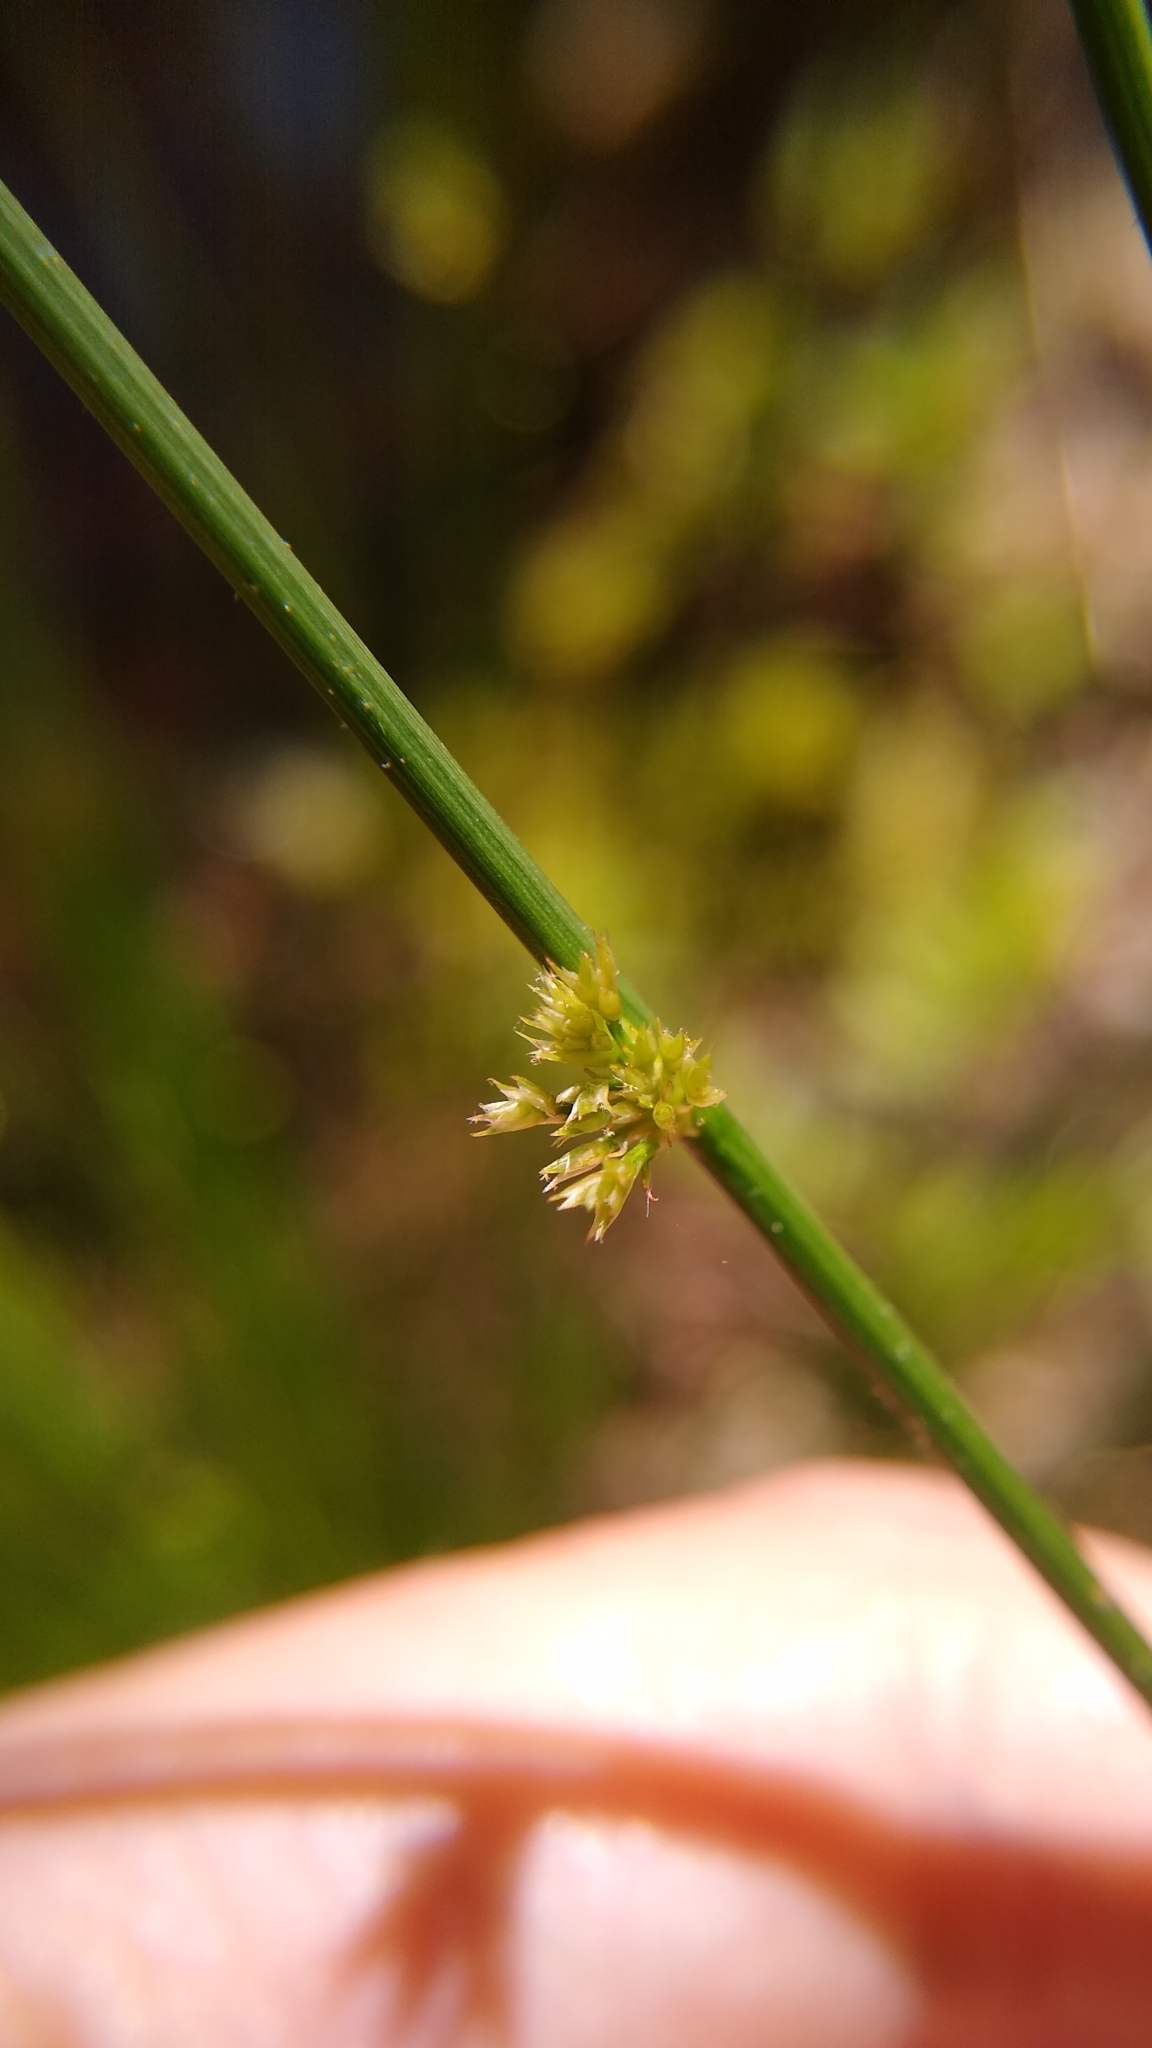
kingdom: Plantae
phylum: Tracheophyta
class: Liliopsida
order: Poales
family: Juncaceae
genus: Juncus
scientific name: Juncus effusus
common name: Soft rush
